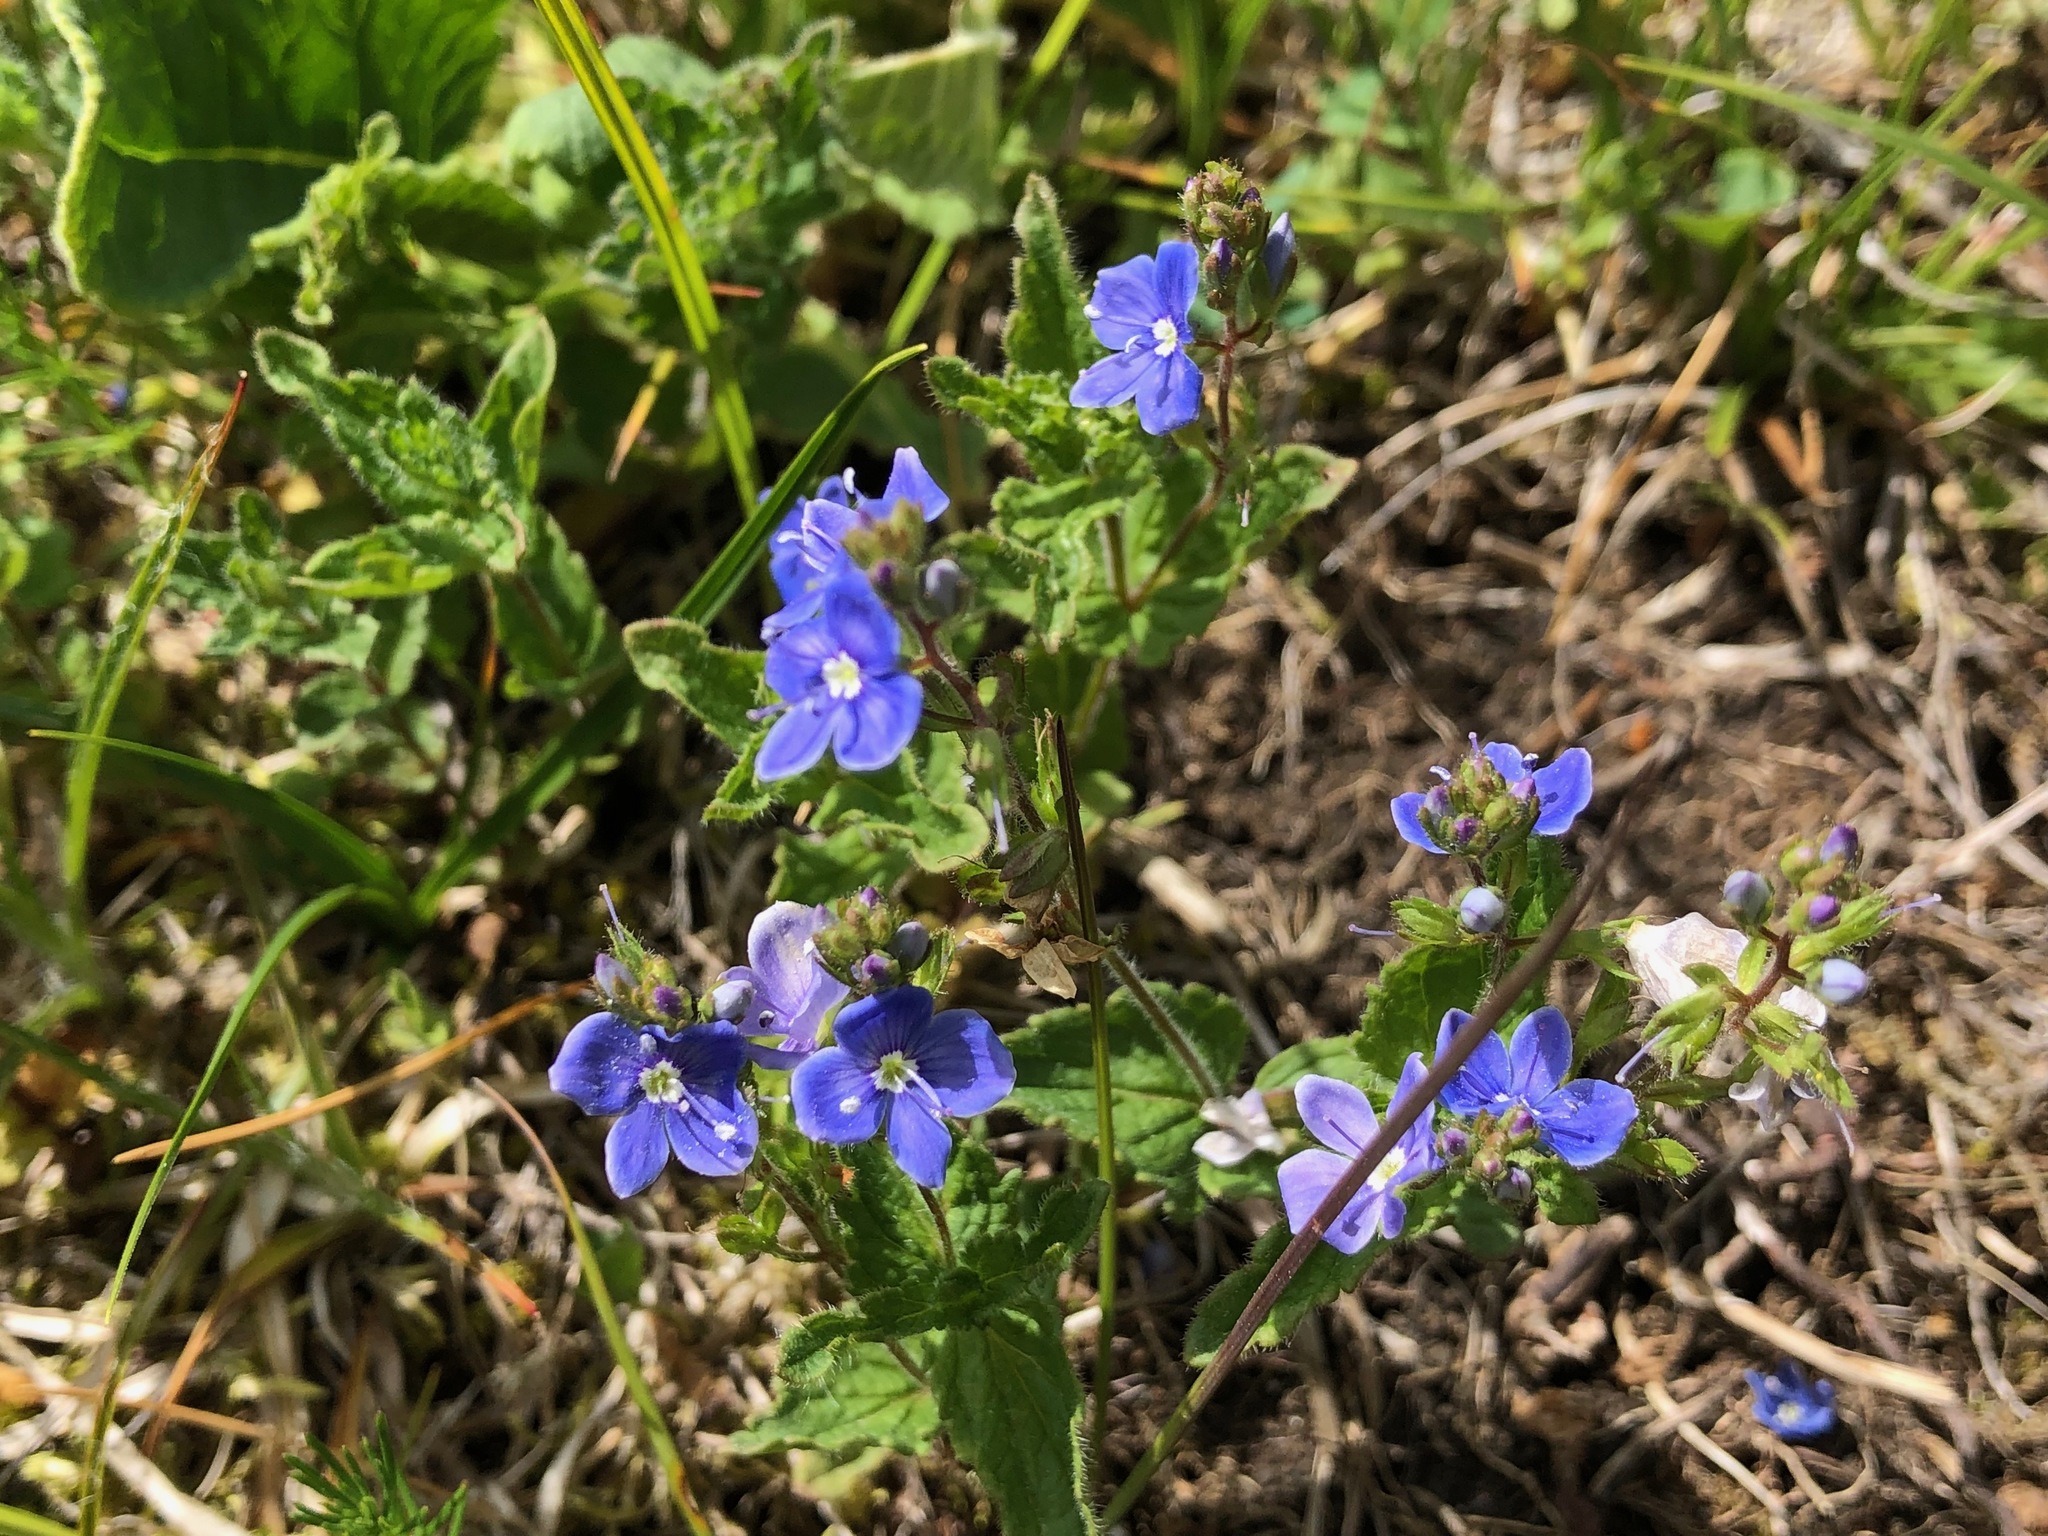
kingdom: Plantae
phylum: Tracheophyta
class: Magnoliopsida
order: Lamiales
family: Plantaginaceae
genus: Veronica
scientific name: Veronica chamaedrys
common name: Germander speedwell
